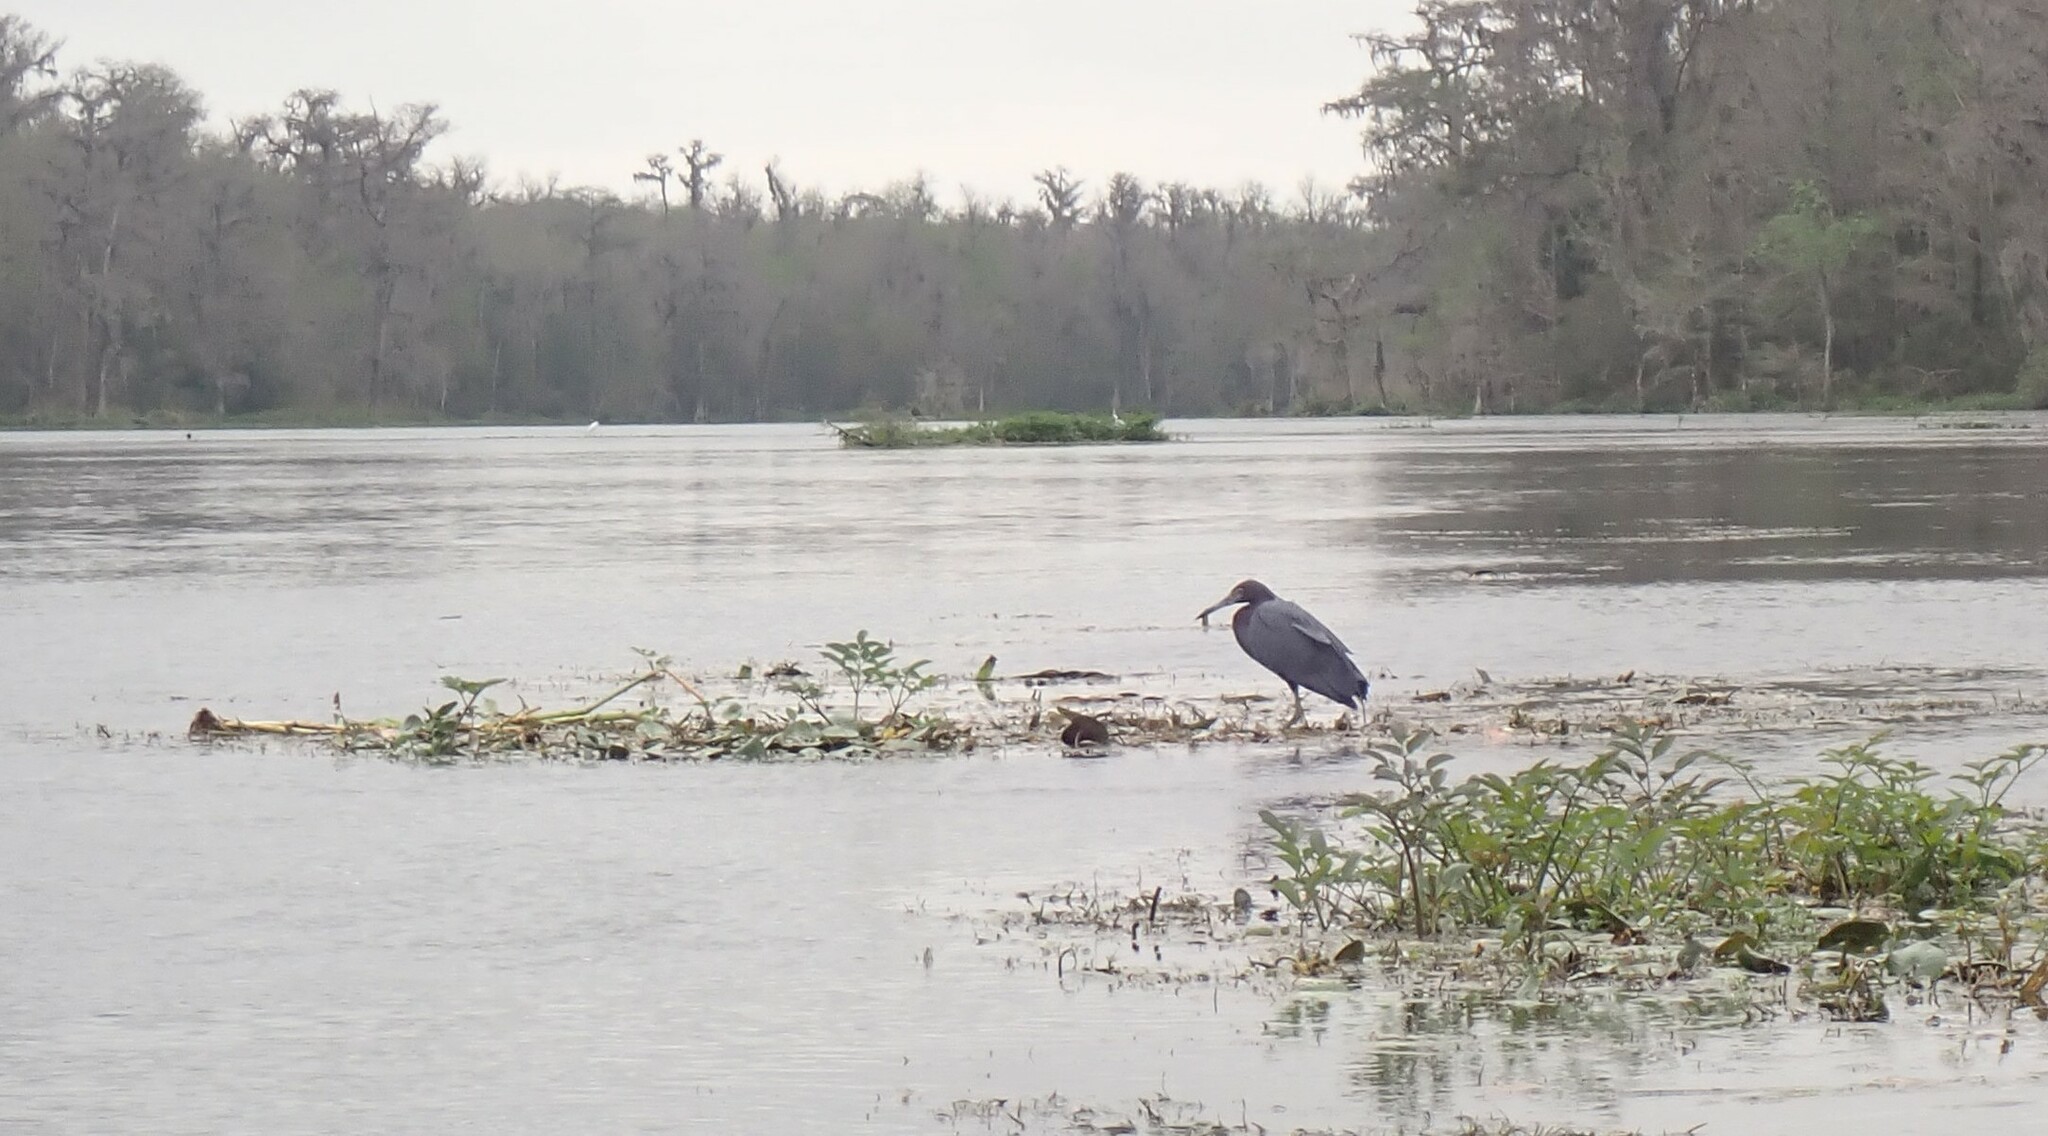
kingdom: Animalia
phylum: Chordata
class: Aves
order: Pelecaniformes
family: Ardeidae
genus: Egretta
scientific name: Egretta caerulea
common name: Little blue heron
